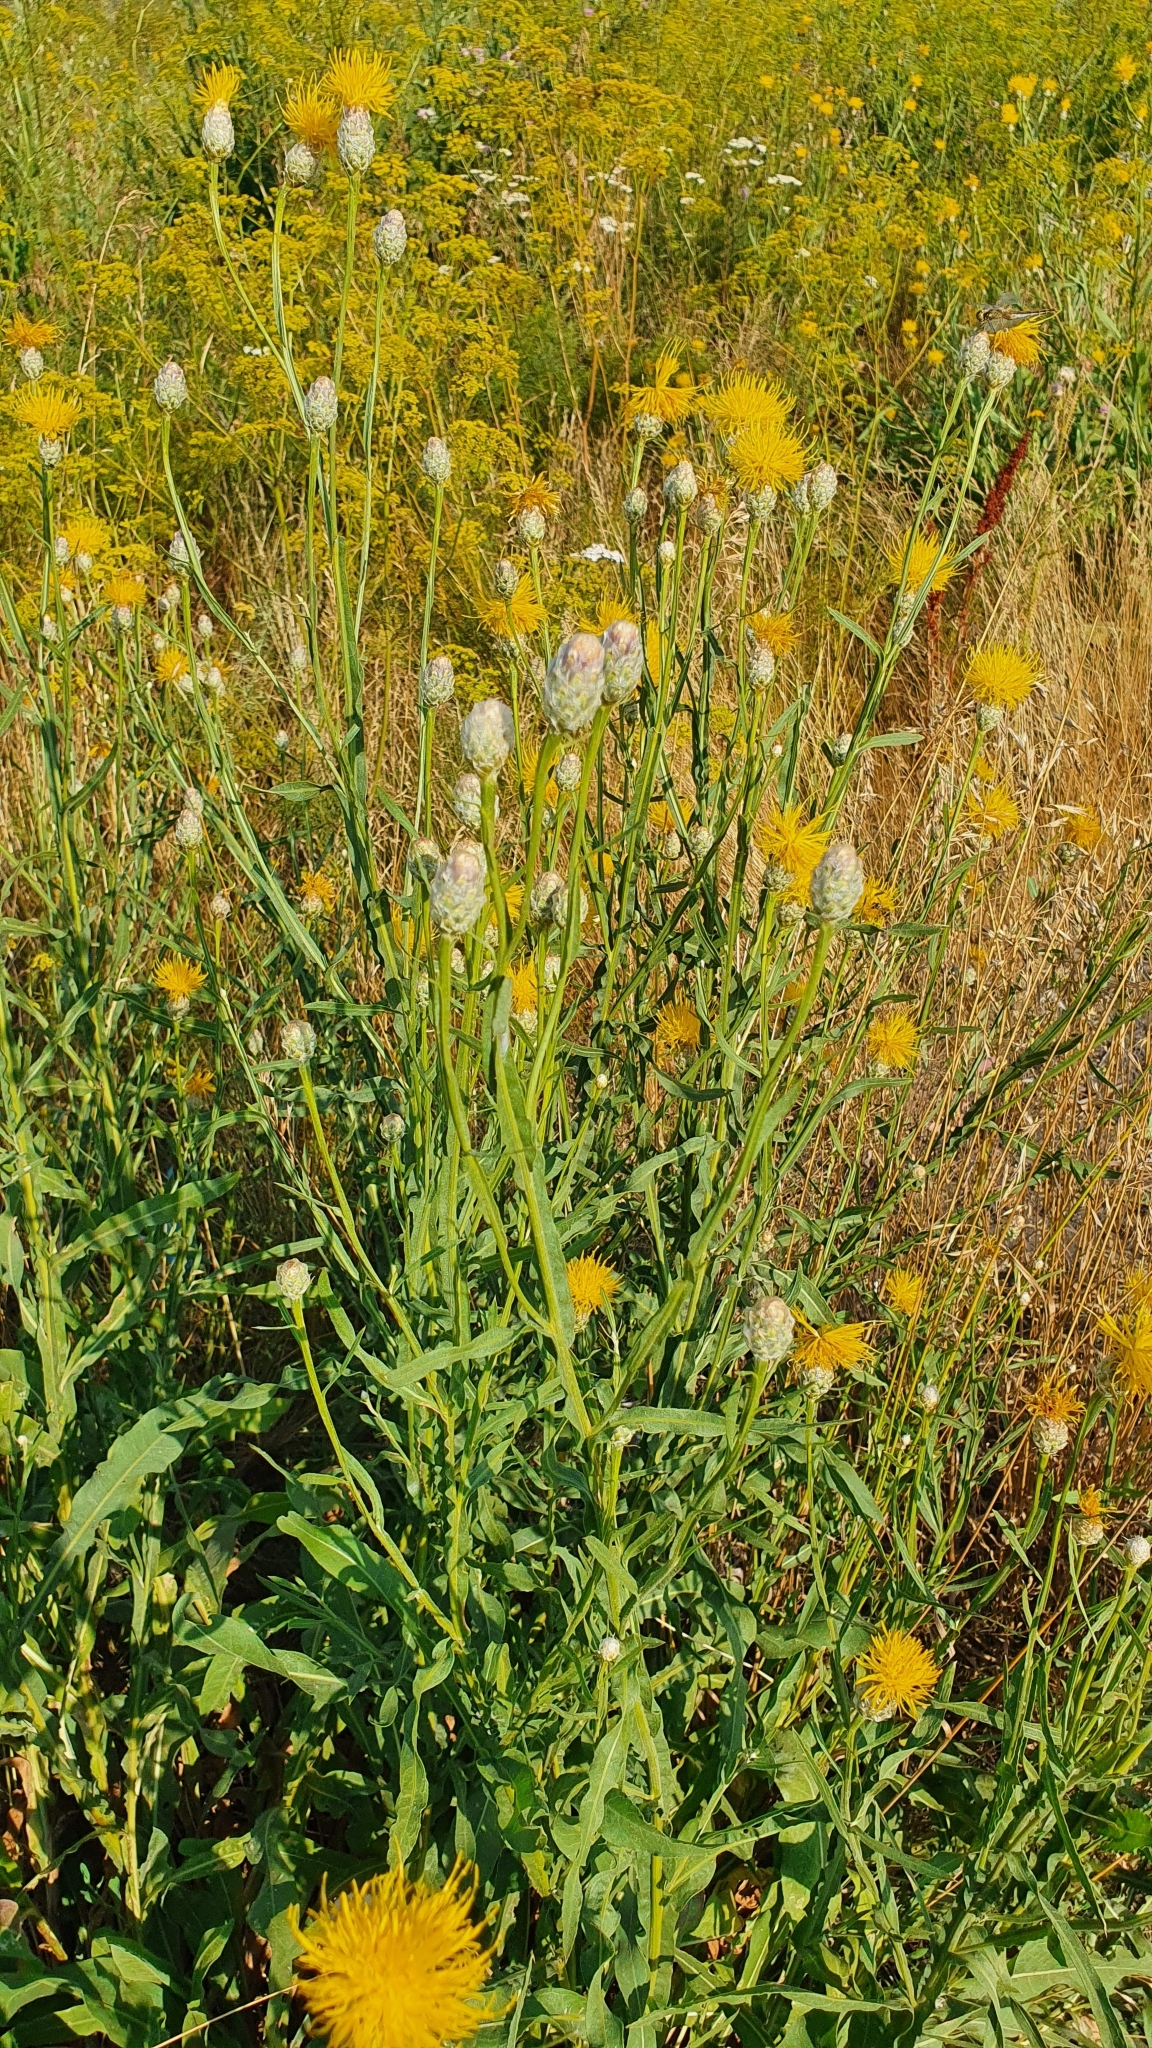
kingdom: Plantae
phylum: Tracheophyta
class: Magnoliopsida
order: Asterales
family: Asteraceae
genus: Centaurea
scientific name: Centaurea glastifolia
